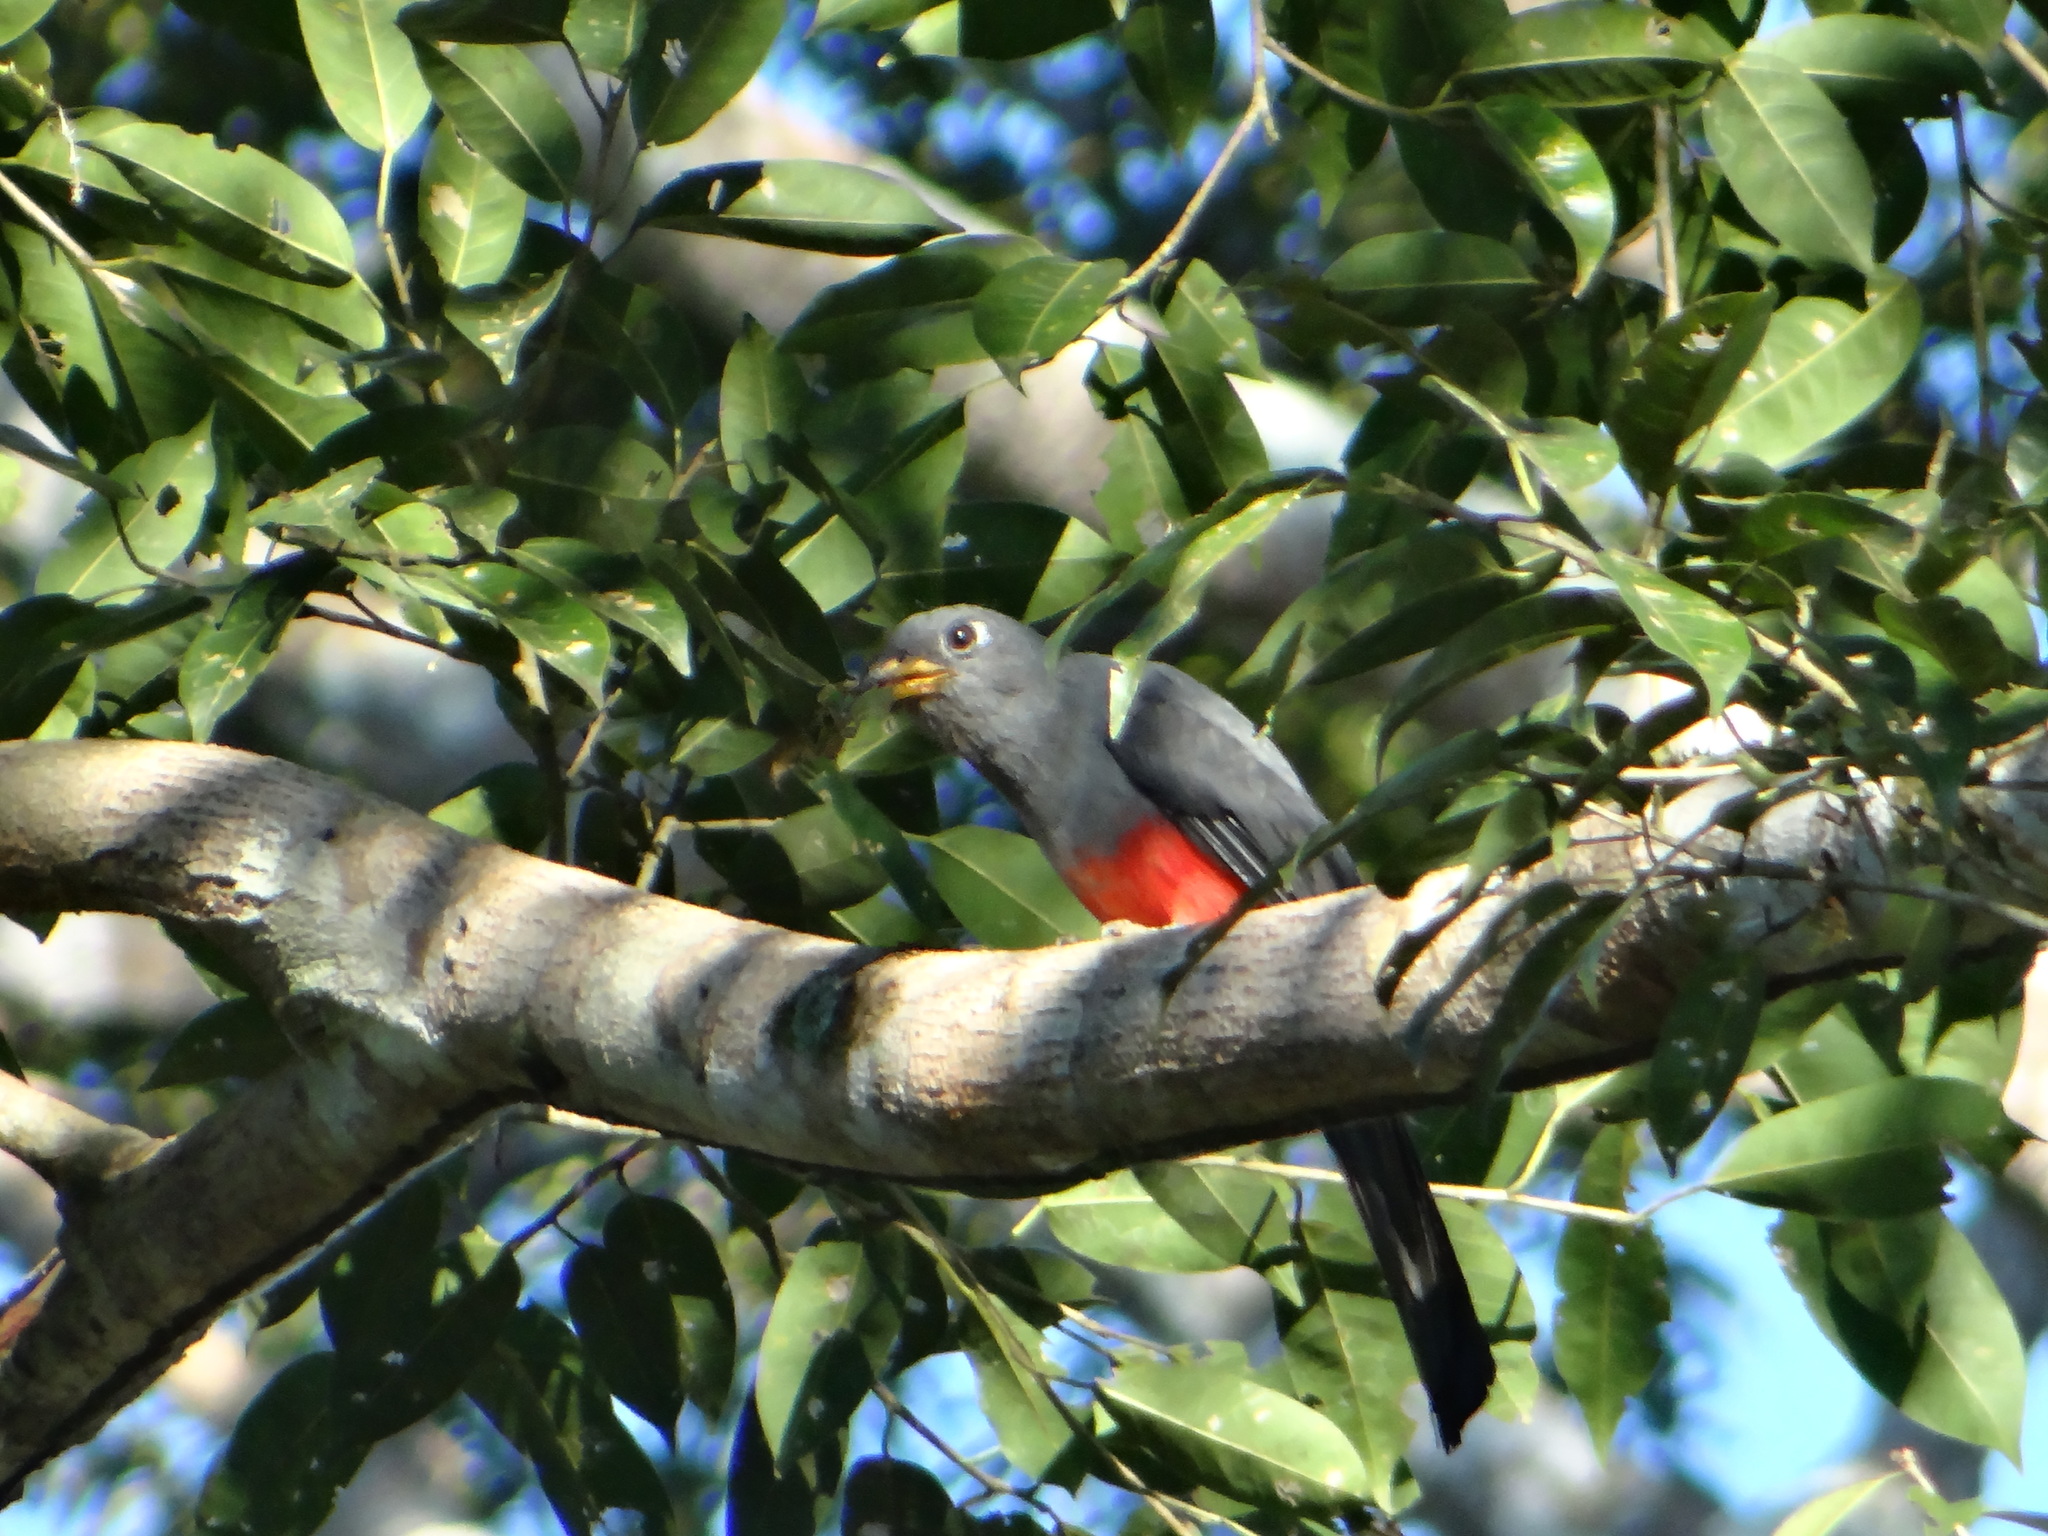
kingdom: Animalia
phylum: Chordata
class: Aves
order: Trogoniformes
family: Trogonidae
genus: Trogon
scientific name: Trogon melanurus
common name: Black-tailed trogon
